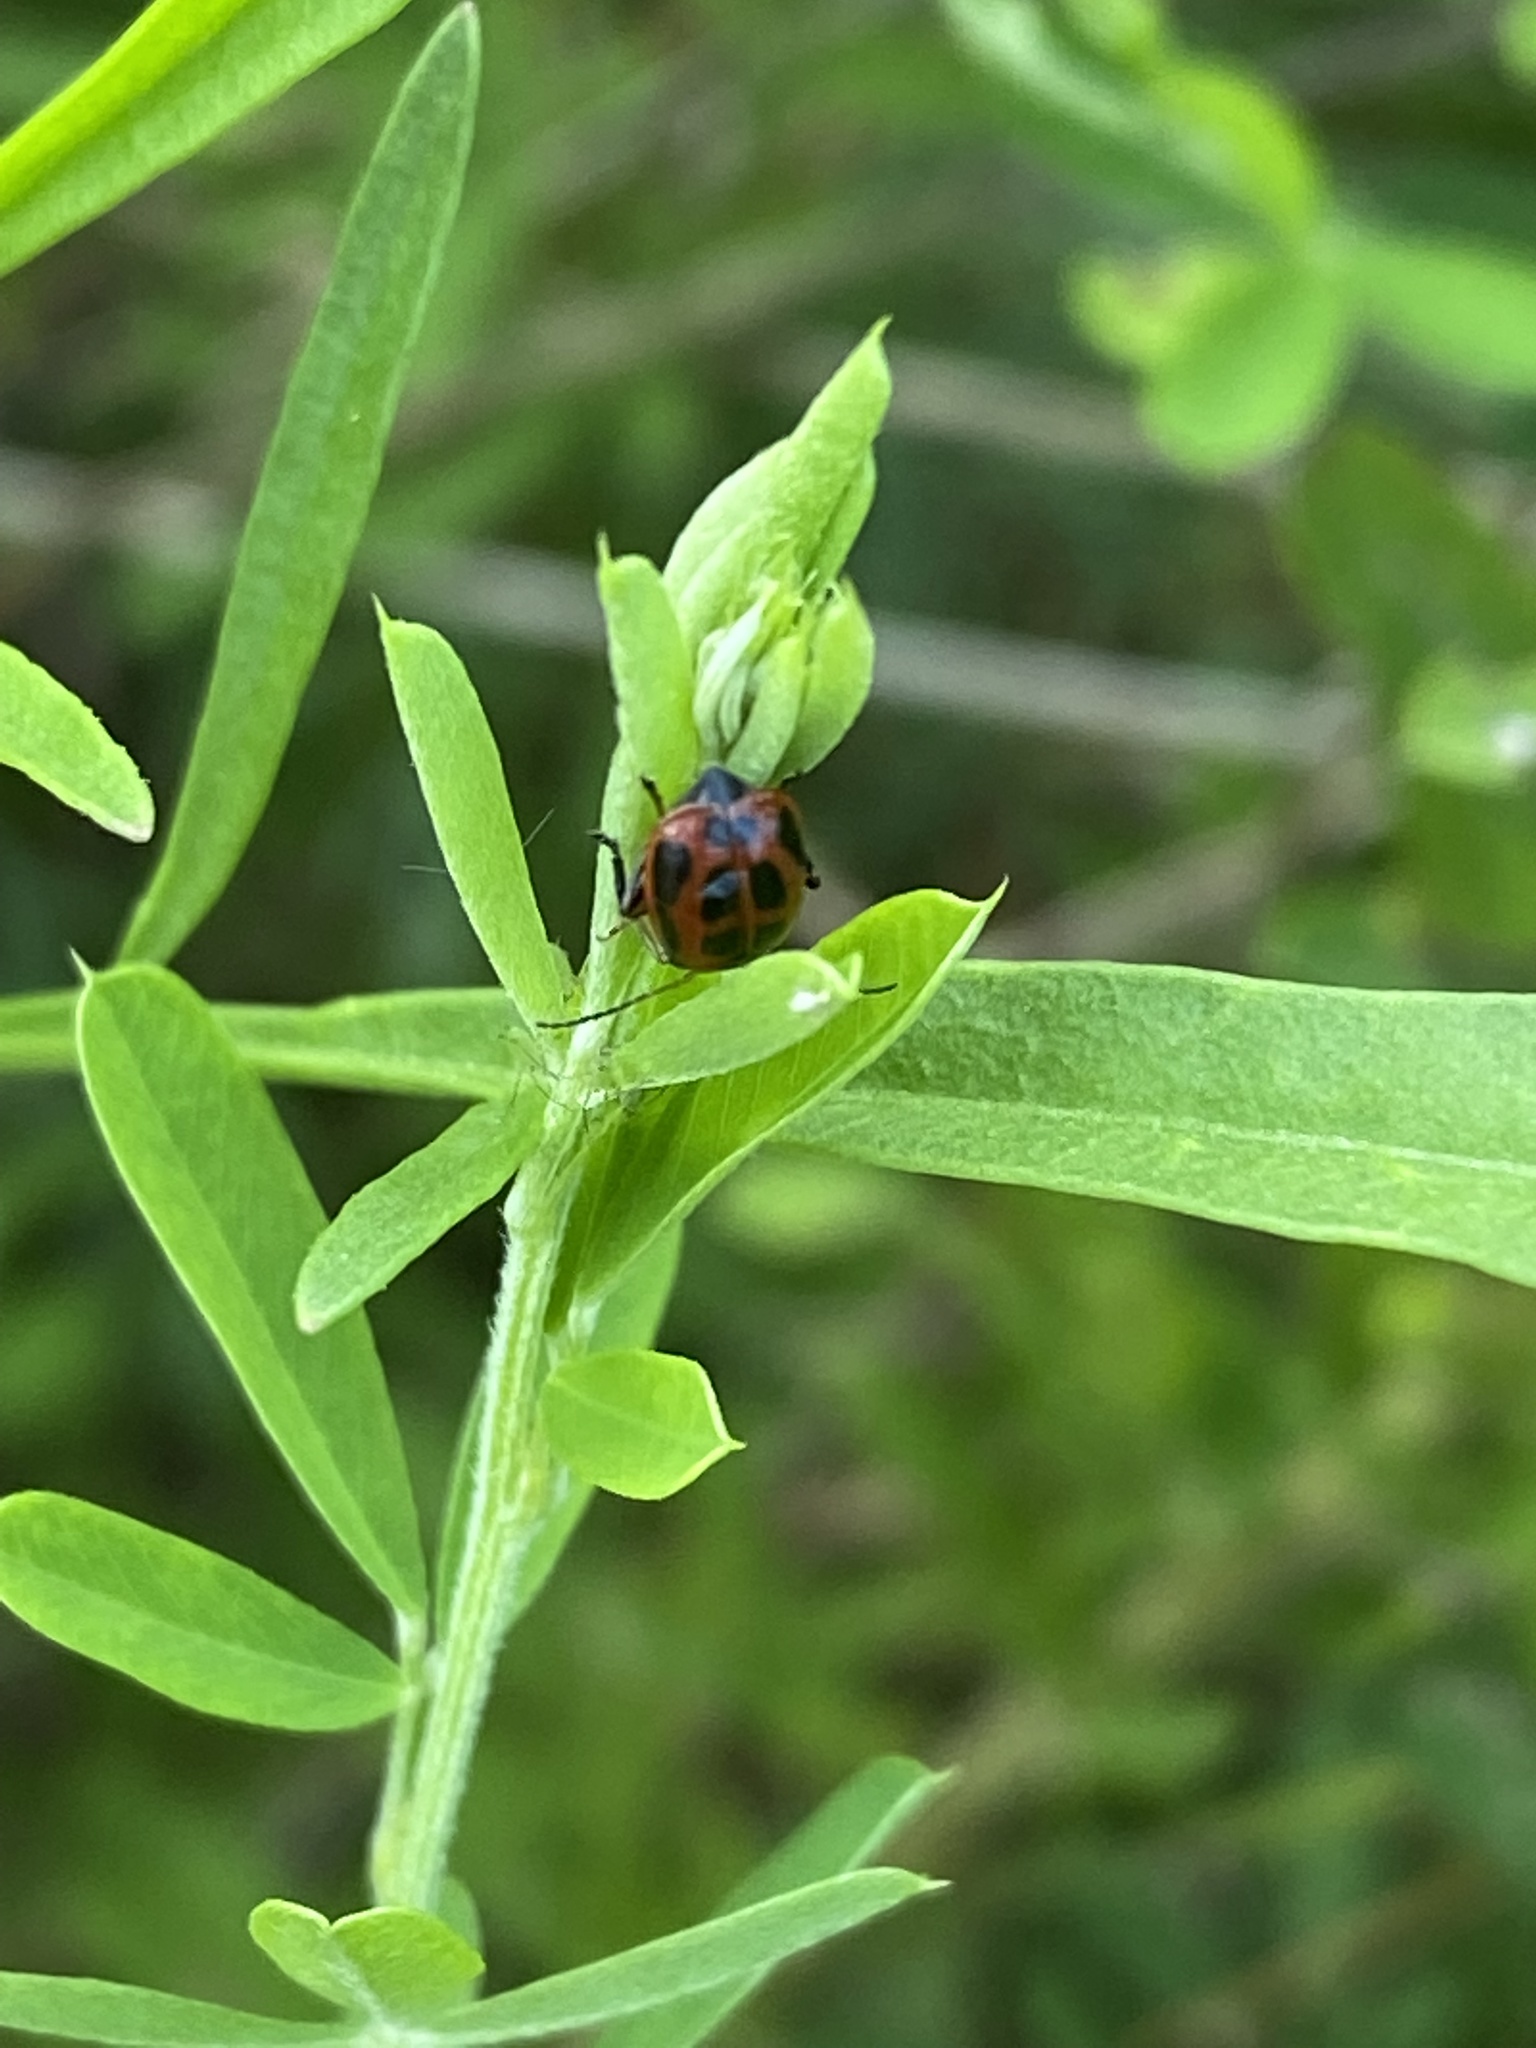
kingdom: Animalia
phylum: Arthropoda
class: Insecta
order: Coleoptera
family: Chrysomelidae
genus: Cerotoma
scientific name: Cerotoma trifurcata
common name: Bean leaf beetle
